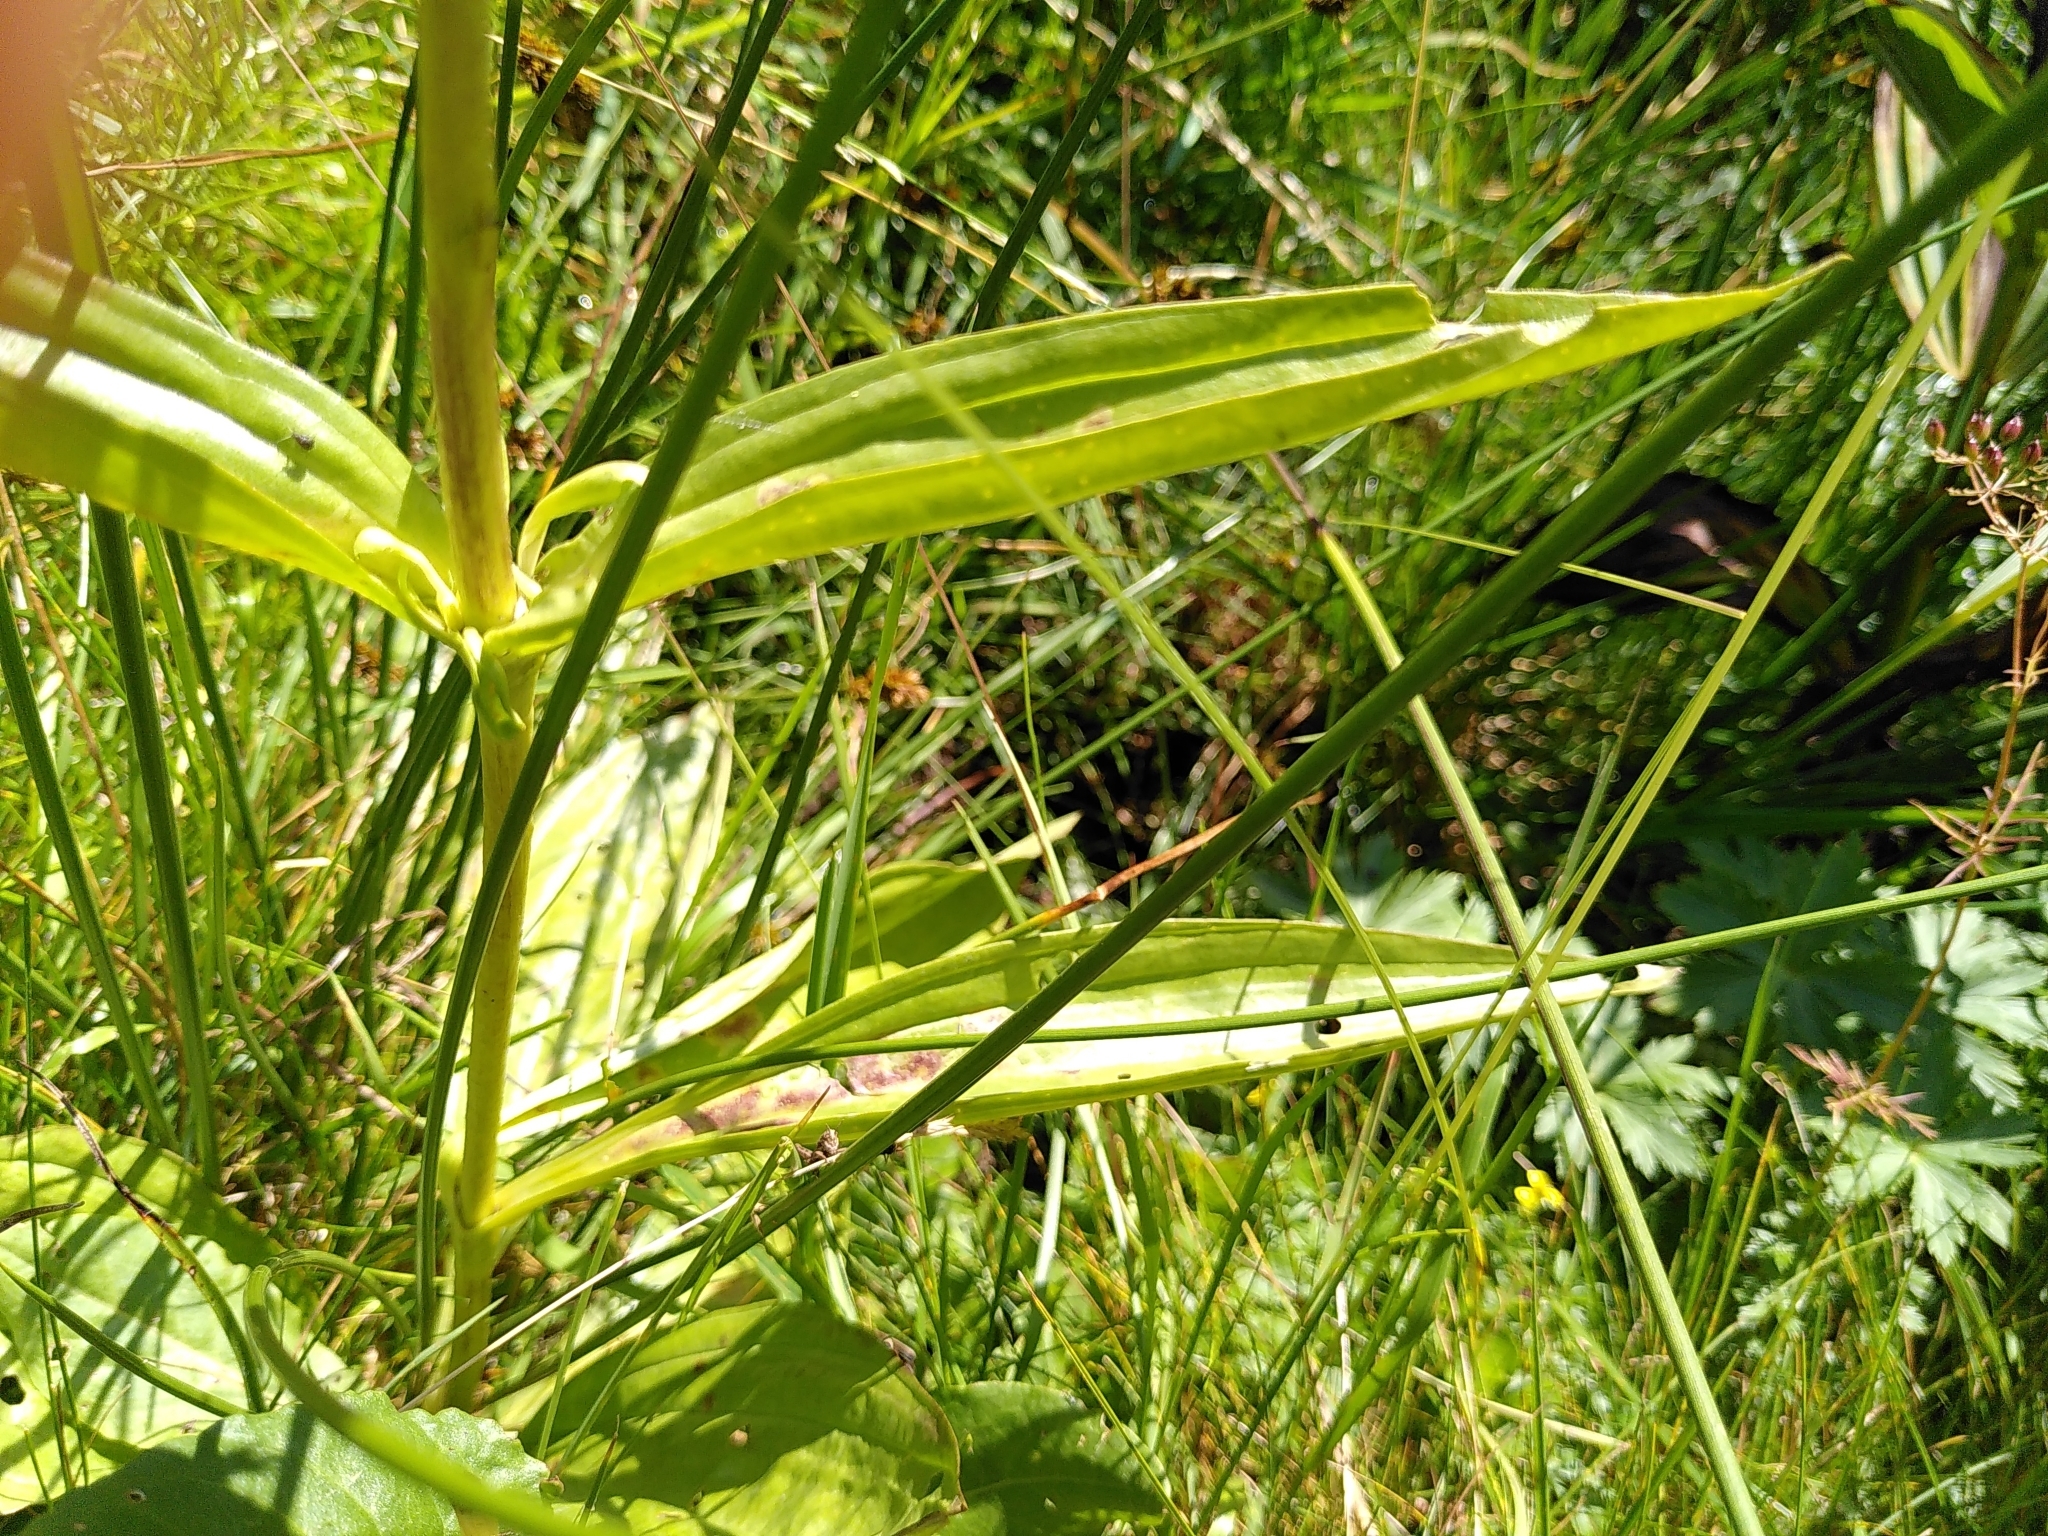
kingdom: Plantae
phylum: Tracheophyta
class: Magnoliopsida
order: Gentianales
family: Gentianaceae
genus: Gentiana
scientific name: Gentiana burseri
